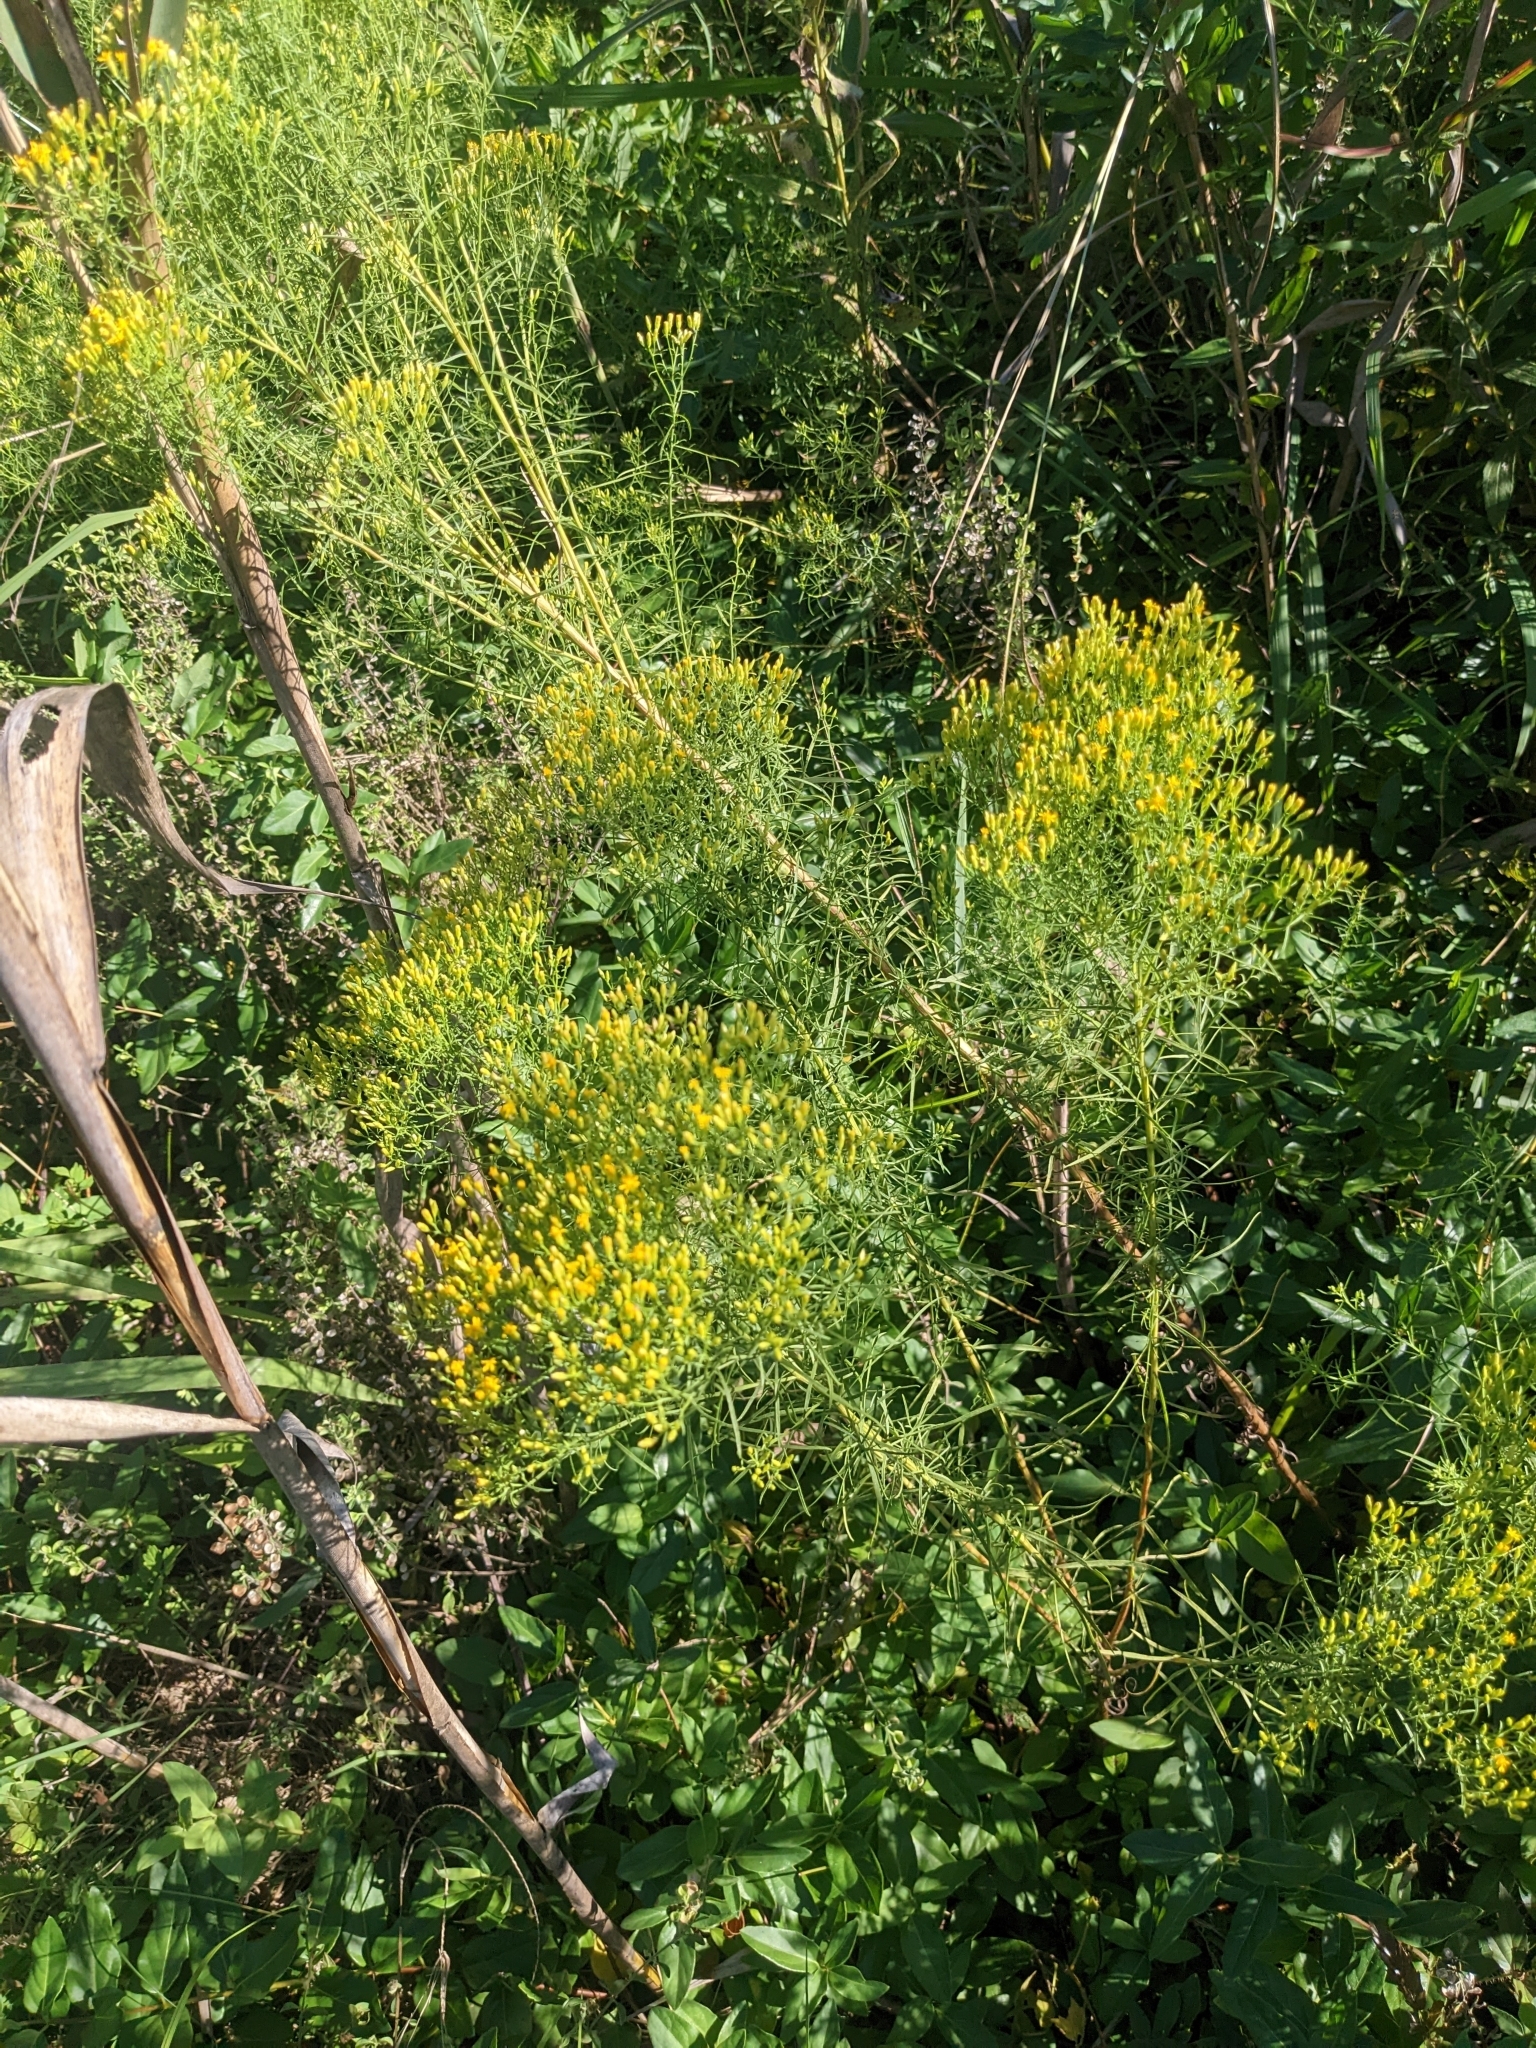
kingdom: Plantae
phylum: Tracheophyta
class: Magnoliopsida
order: Asterales
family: Asteraceae
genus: Euthamia
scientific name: Euthamia caroliniana
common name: Coastal plain goldentop
